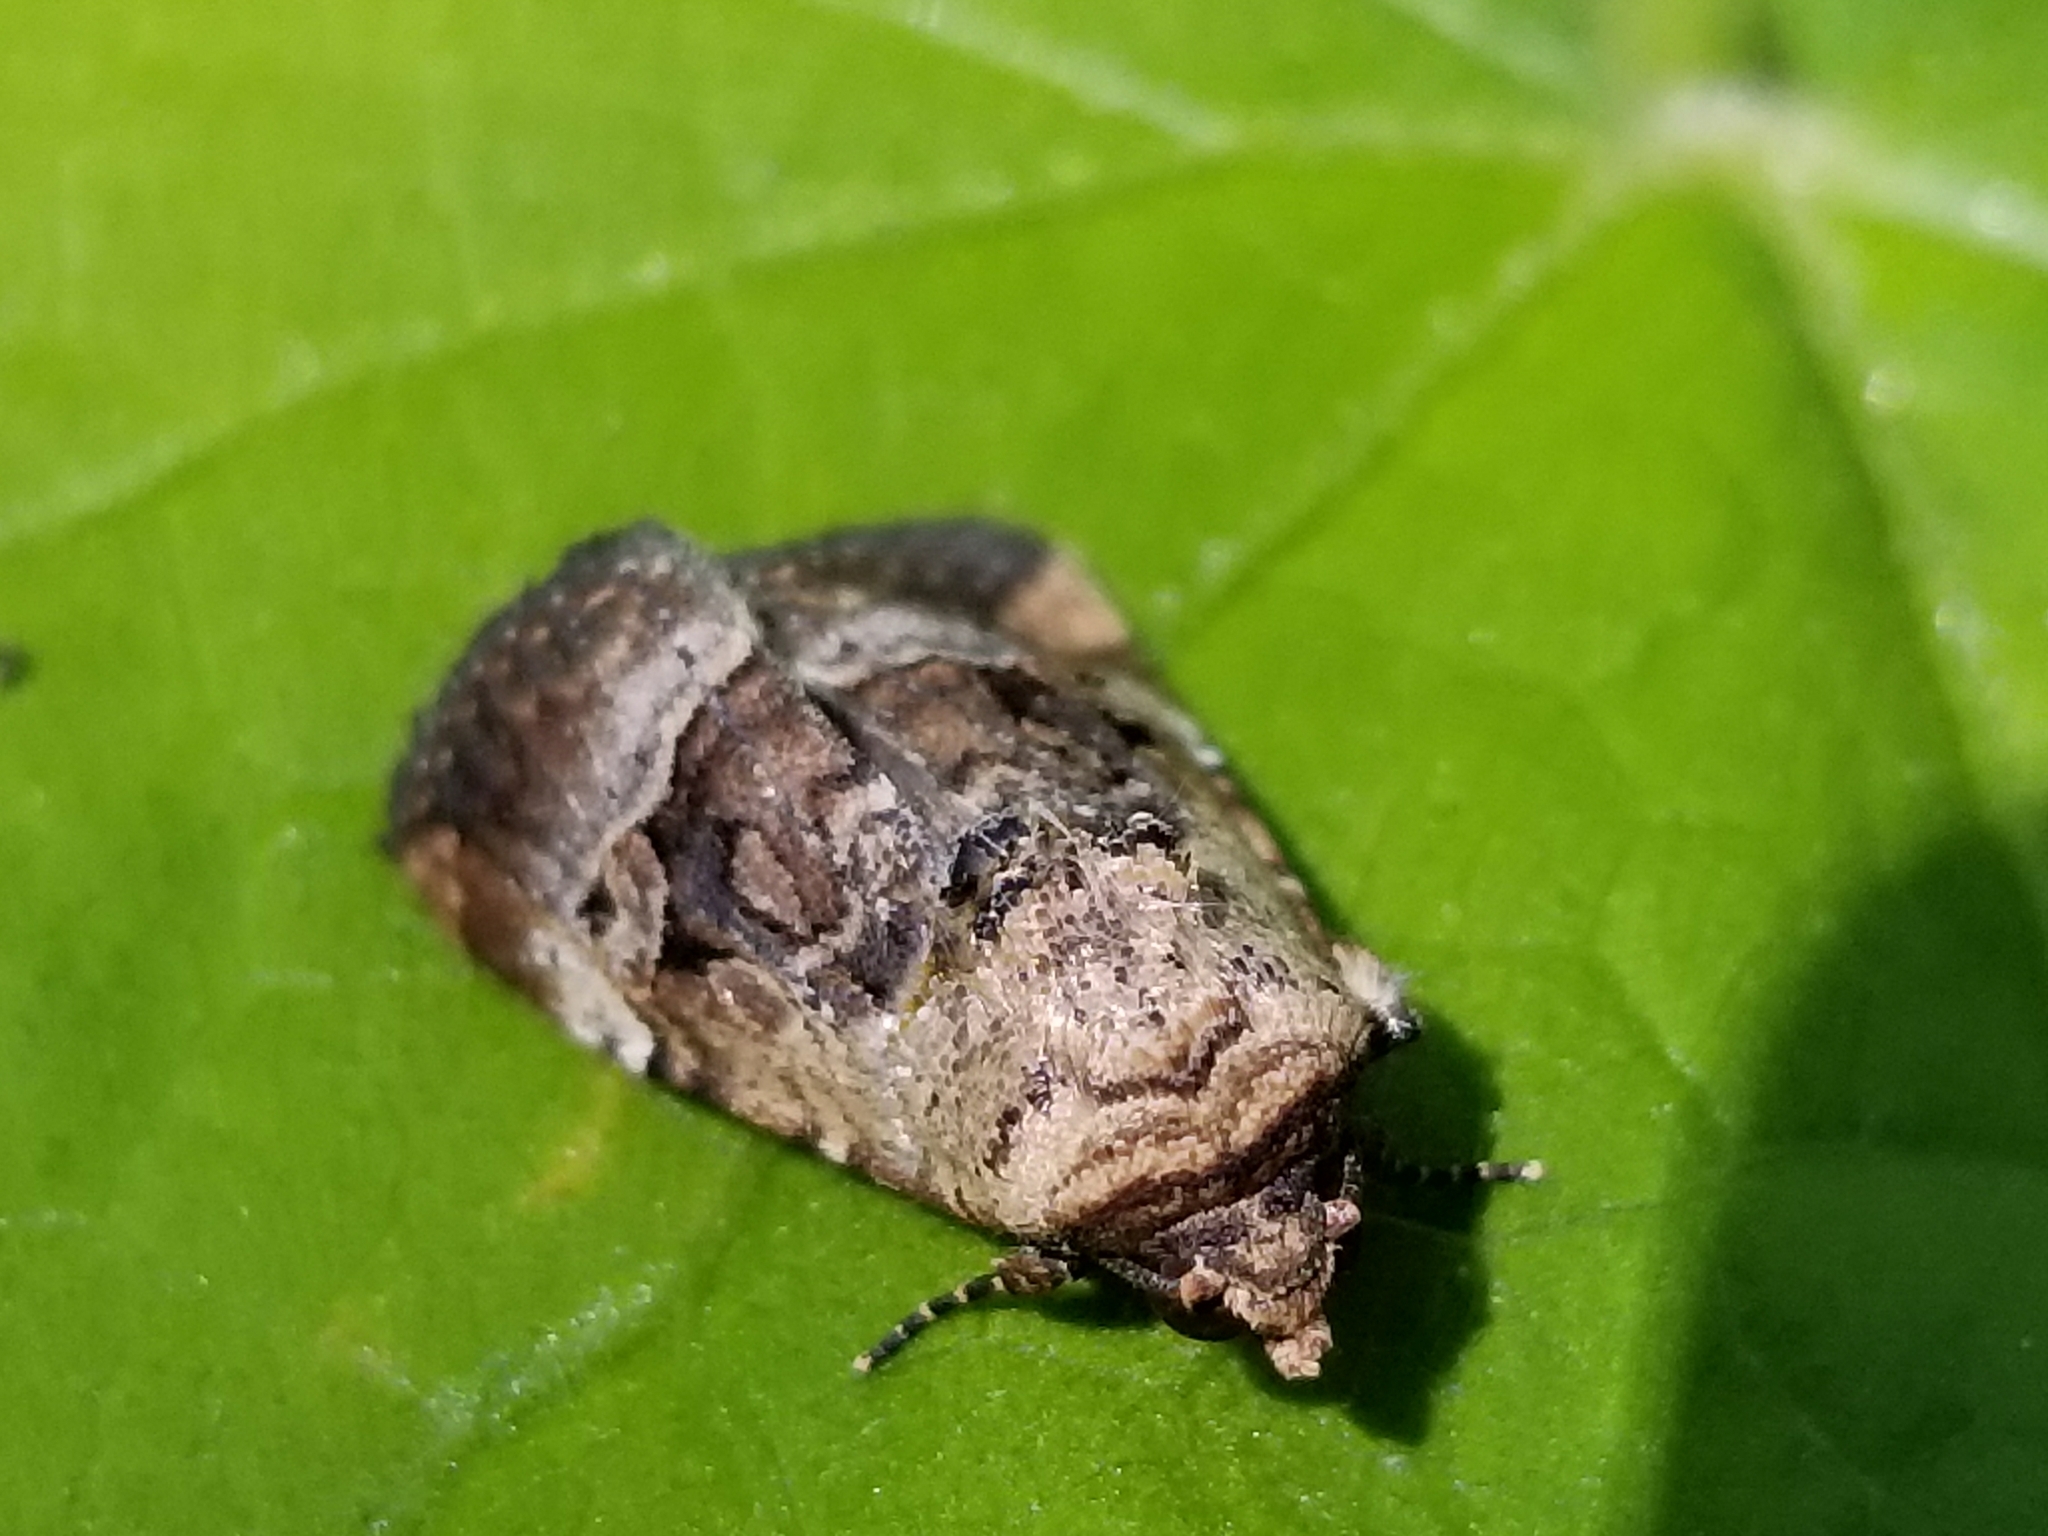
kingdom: Animalia
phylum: Arthropoda
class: Insecta
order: Lepidoptera
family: Noctuidae
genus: Elaphria
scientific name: Elaphria chalcedonia
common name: Chalcedony midget
